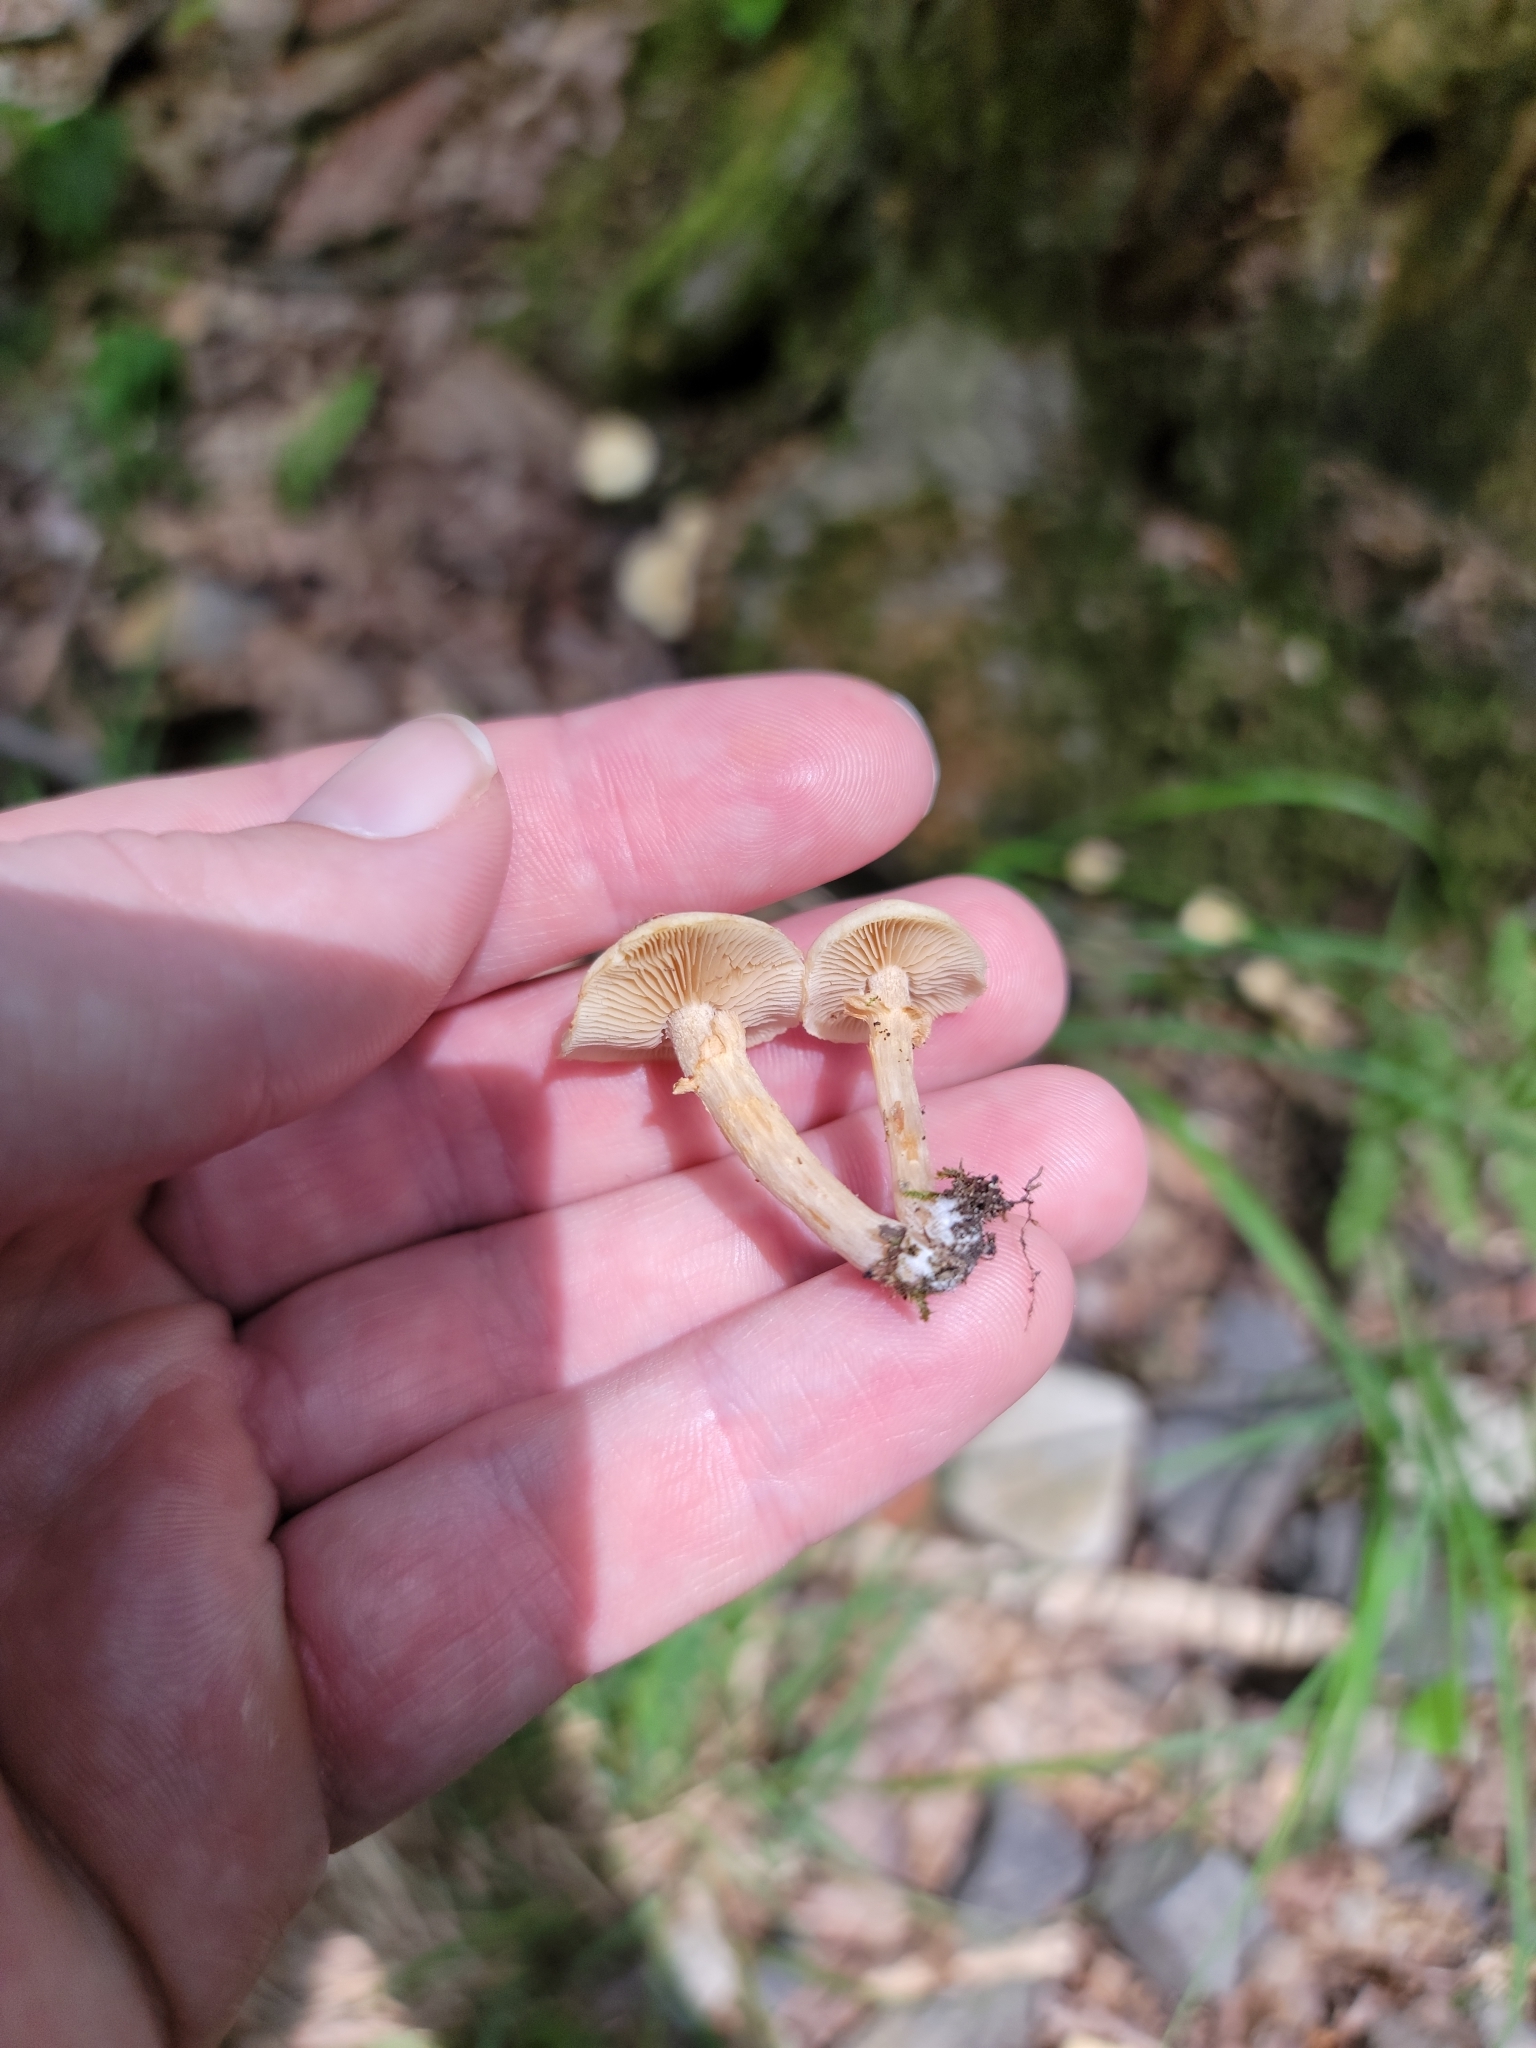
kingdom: Fungi
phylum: Basidiomycota
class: Agaricomycetes
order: Agaricales
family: Strophariaceae
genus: Kuehneromyces
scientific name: Kuehneromyces marginellus
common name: Sheathed woodtuft
